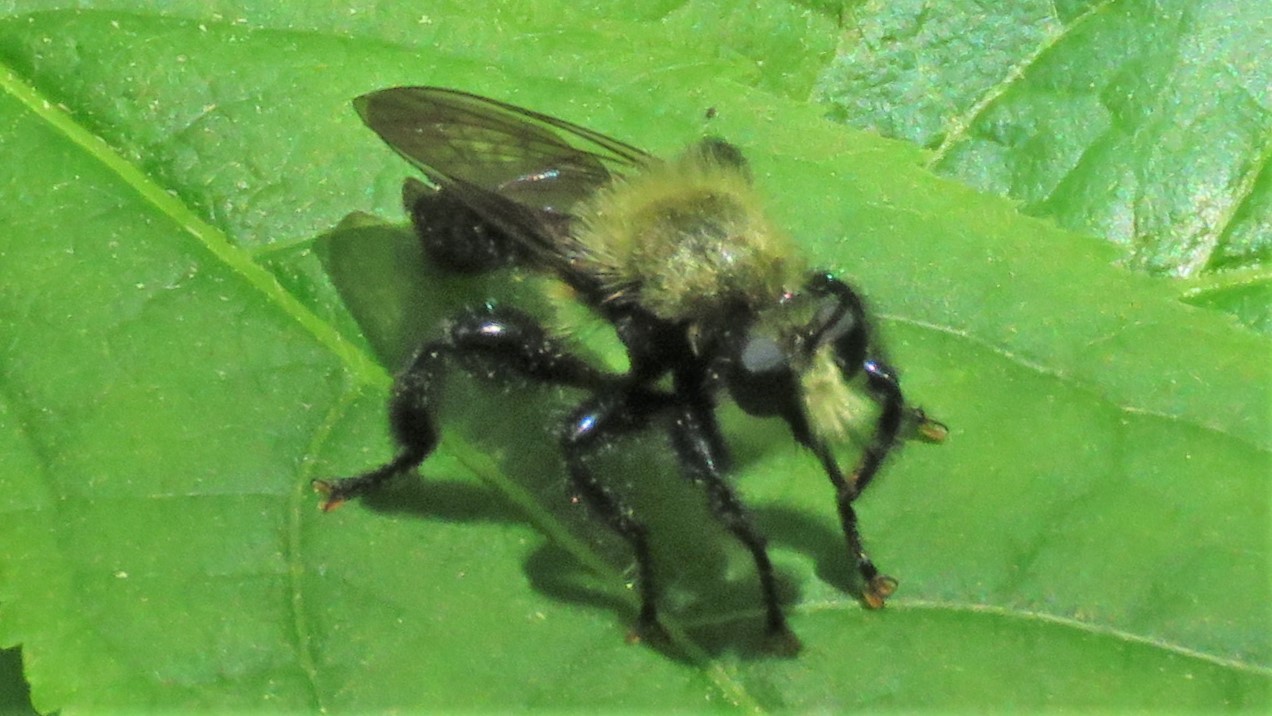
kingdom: Animalia
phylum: Arthropoda
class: Insecta
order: Diptera
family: Asilidae
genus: Laphria
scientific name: Laphria flavicollis
